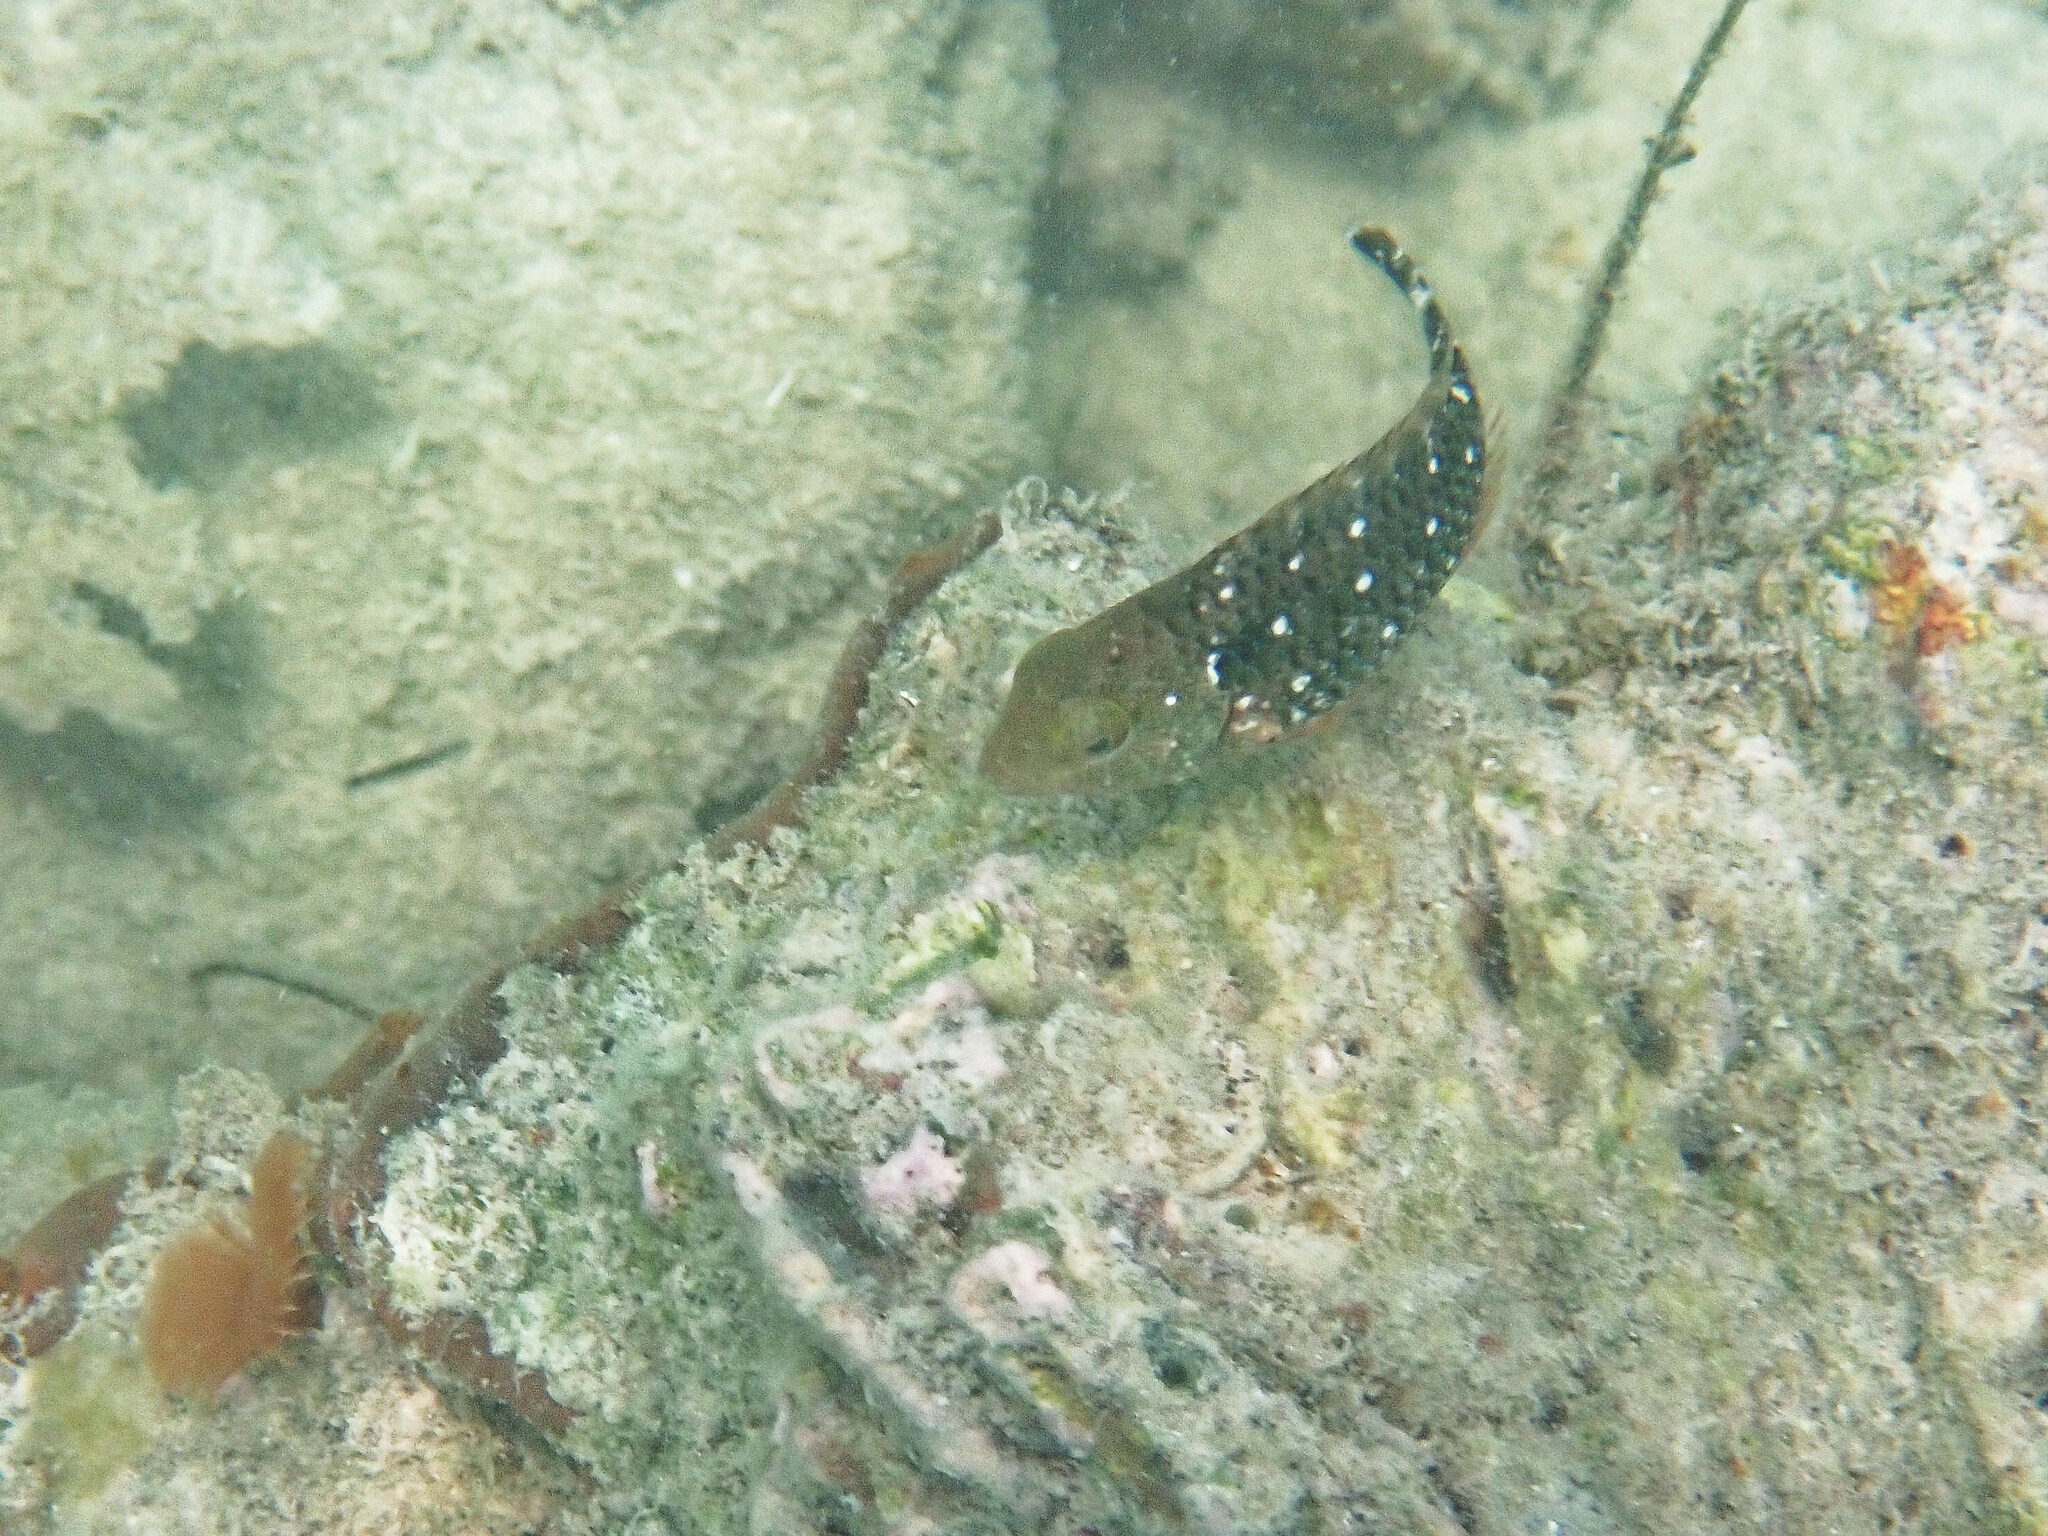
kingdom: Animalia
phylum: Chordata
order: Perciformes
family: Scaridae
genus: Sparisoma
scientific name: Sparisoma viride
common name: Stoplight parrotfish
